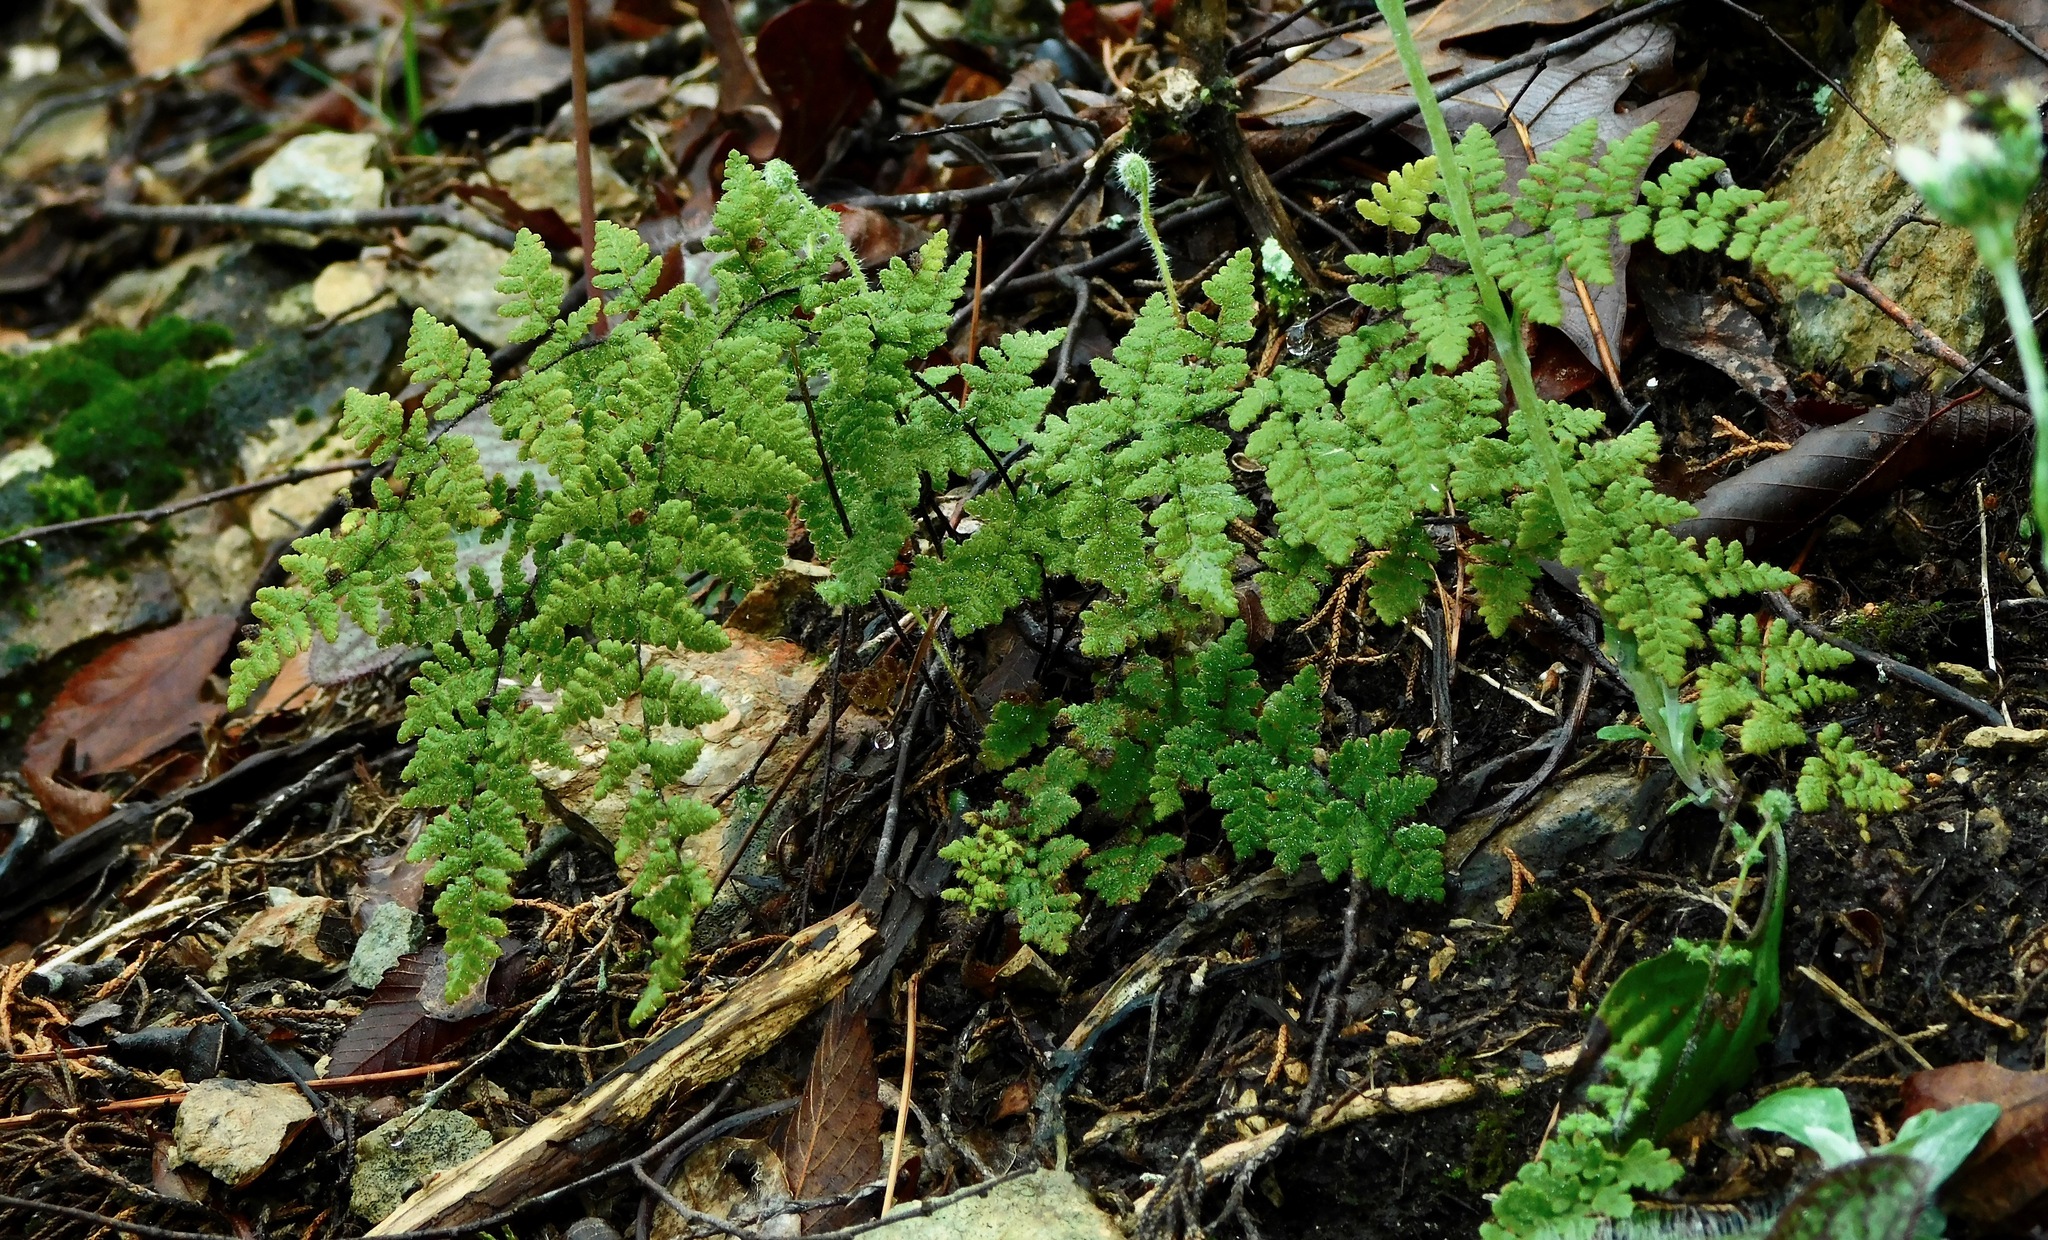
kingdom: Plantae
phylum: Tracheophyta
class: Polypodiopsida
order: Polypodiales
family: Pteridaceae
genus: Myriopteris
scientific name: Myriopteris lanosa
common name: Hairy lip fern
